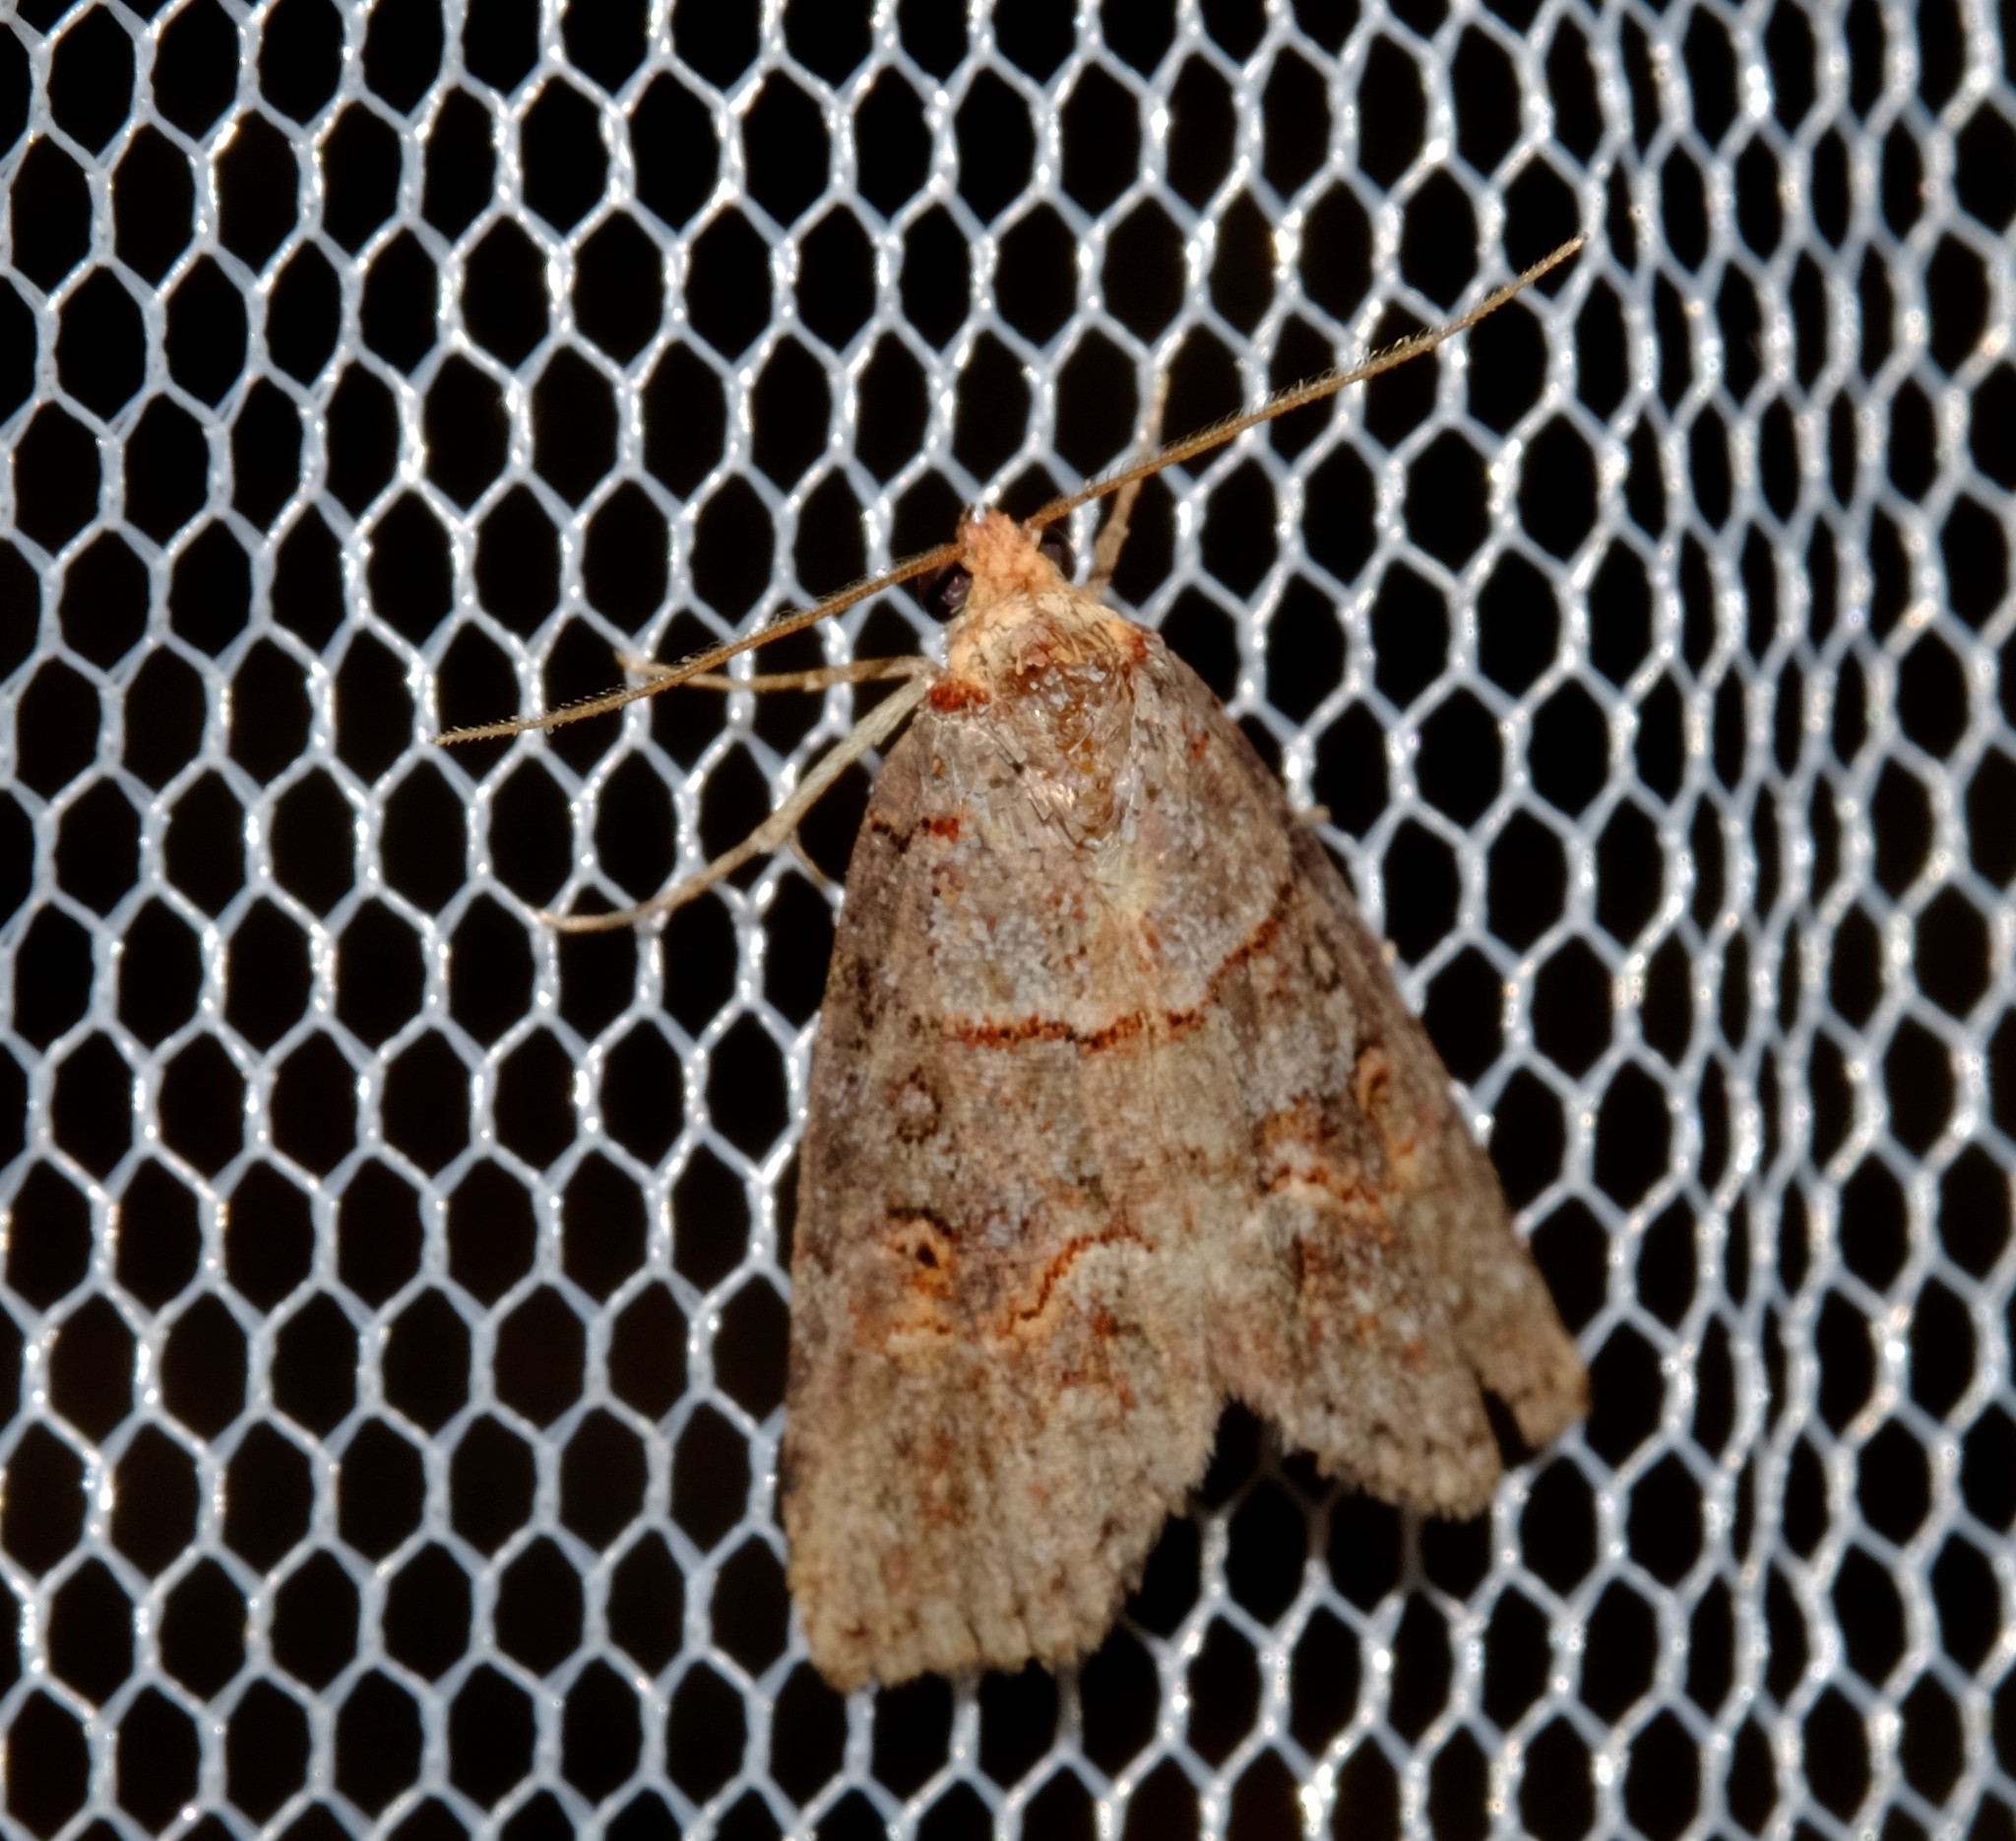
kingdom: Animalia
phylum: Arthropoda
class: Insecta
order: Lepidoptera
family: Nolidae
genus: Calathusa
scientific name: Calathusa hypotherma
